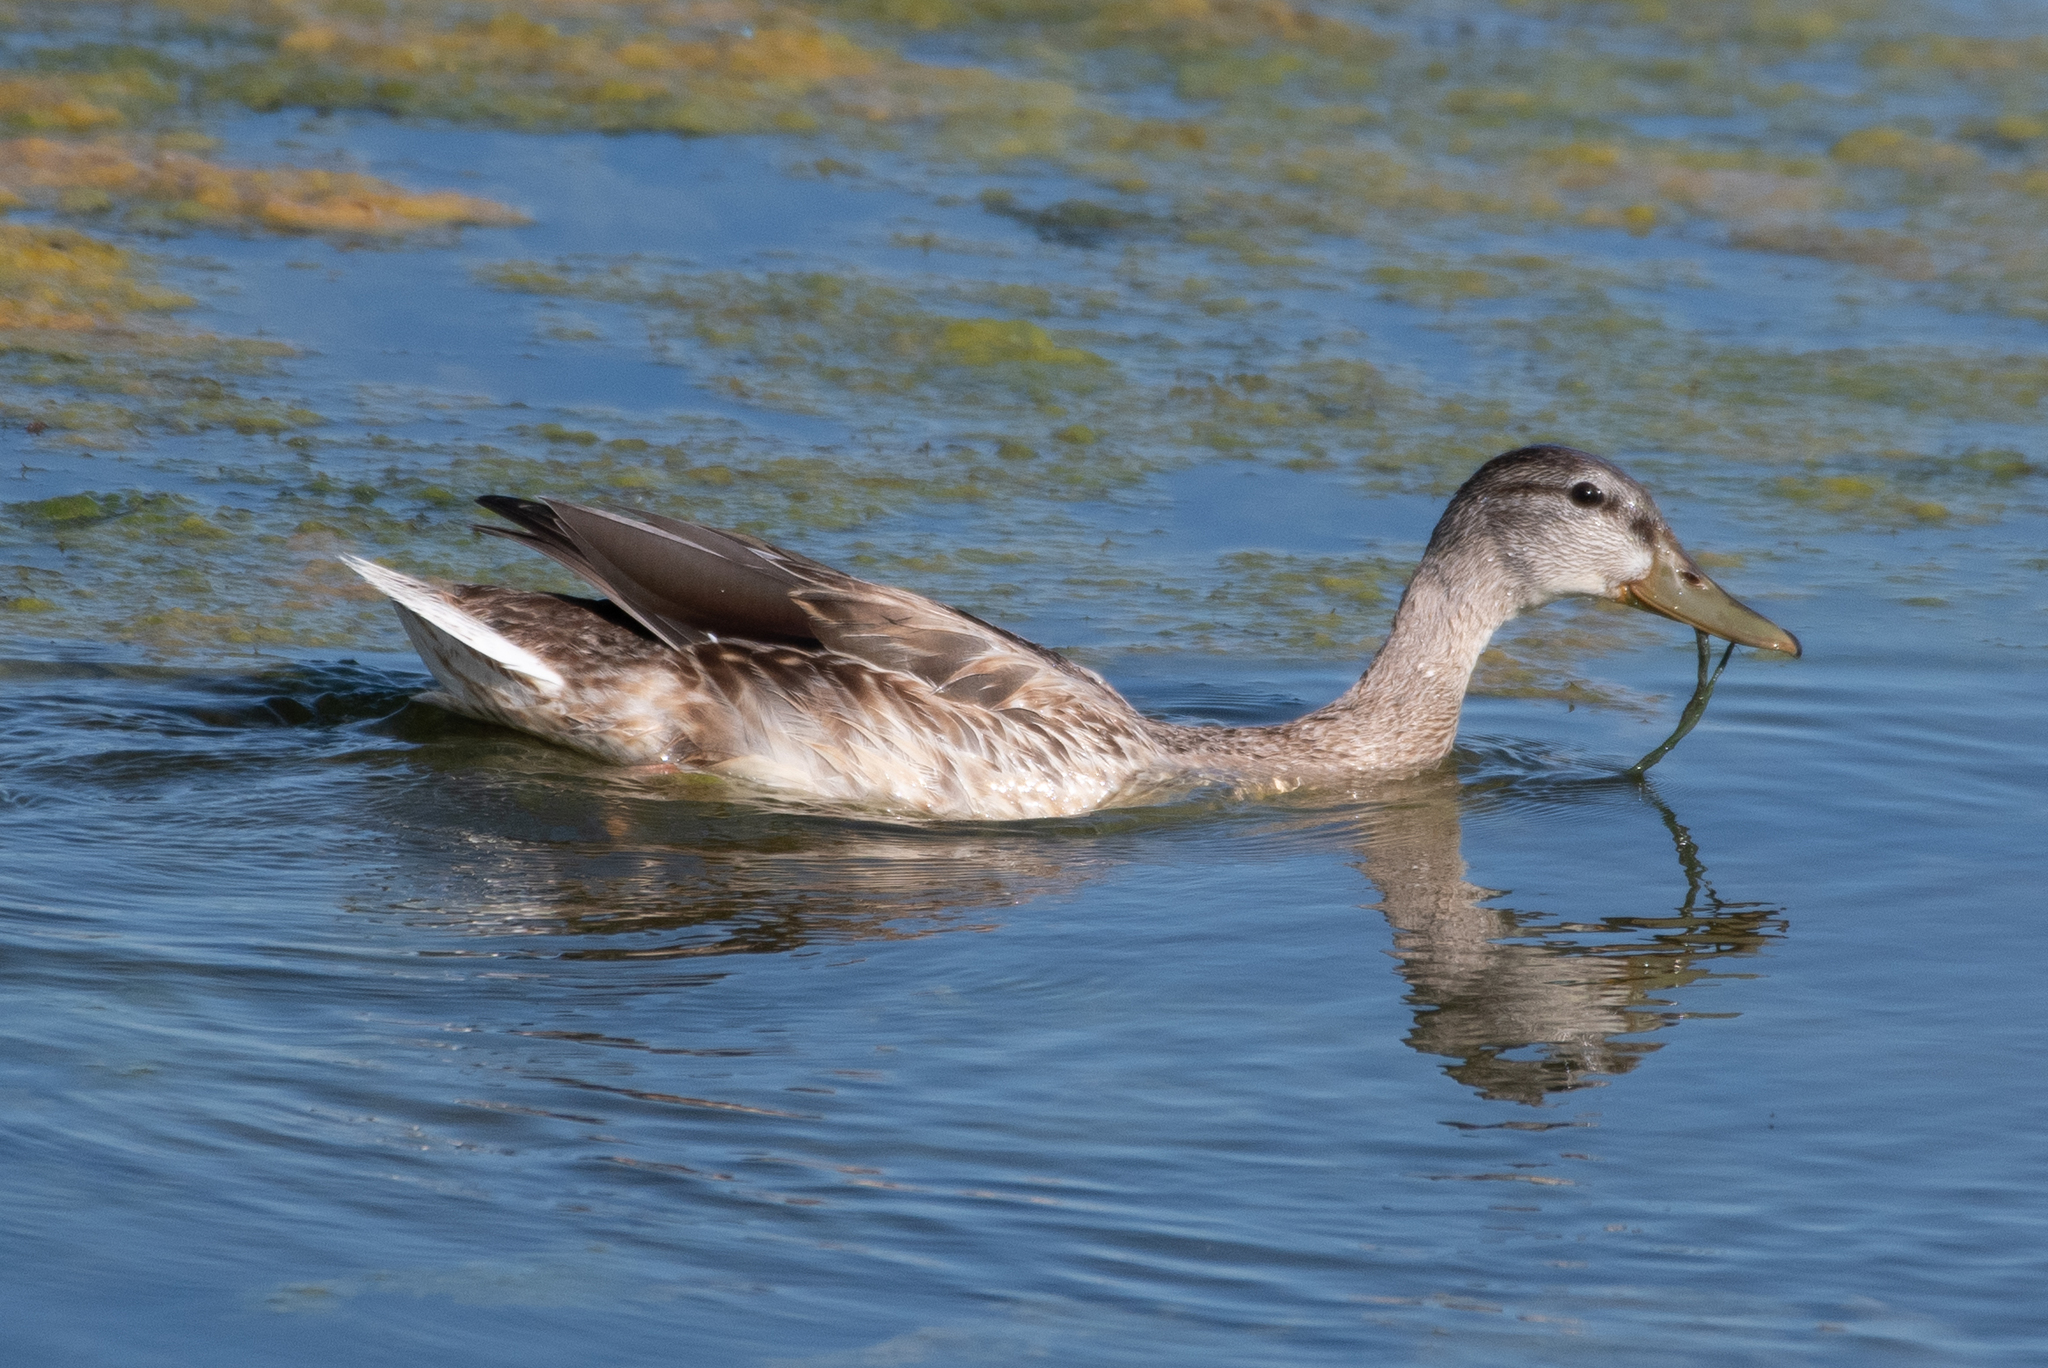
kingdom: Animalia
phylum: Chordata
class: Aves
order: Anseriformes
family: Anatidae
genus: Anas
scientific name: Anas platyrhynchos
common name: Mallard
